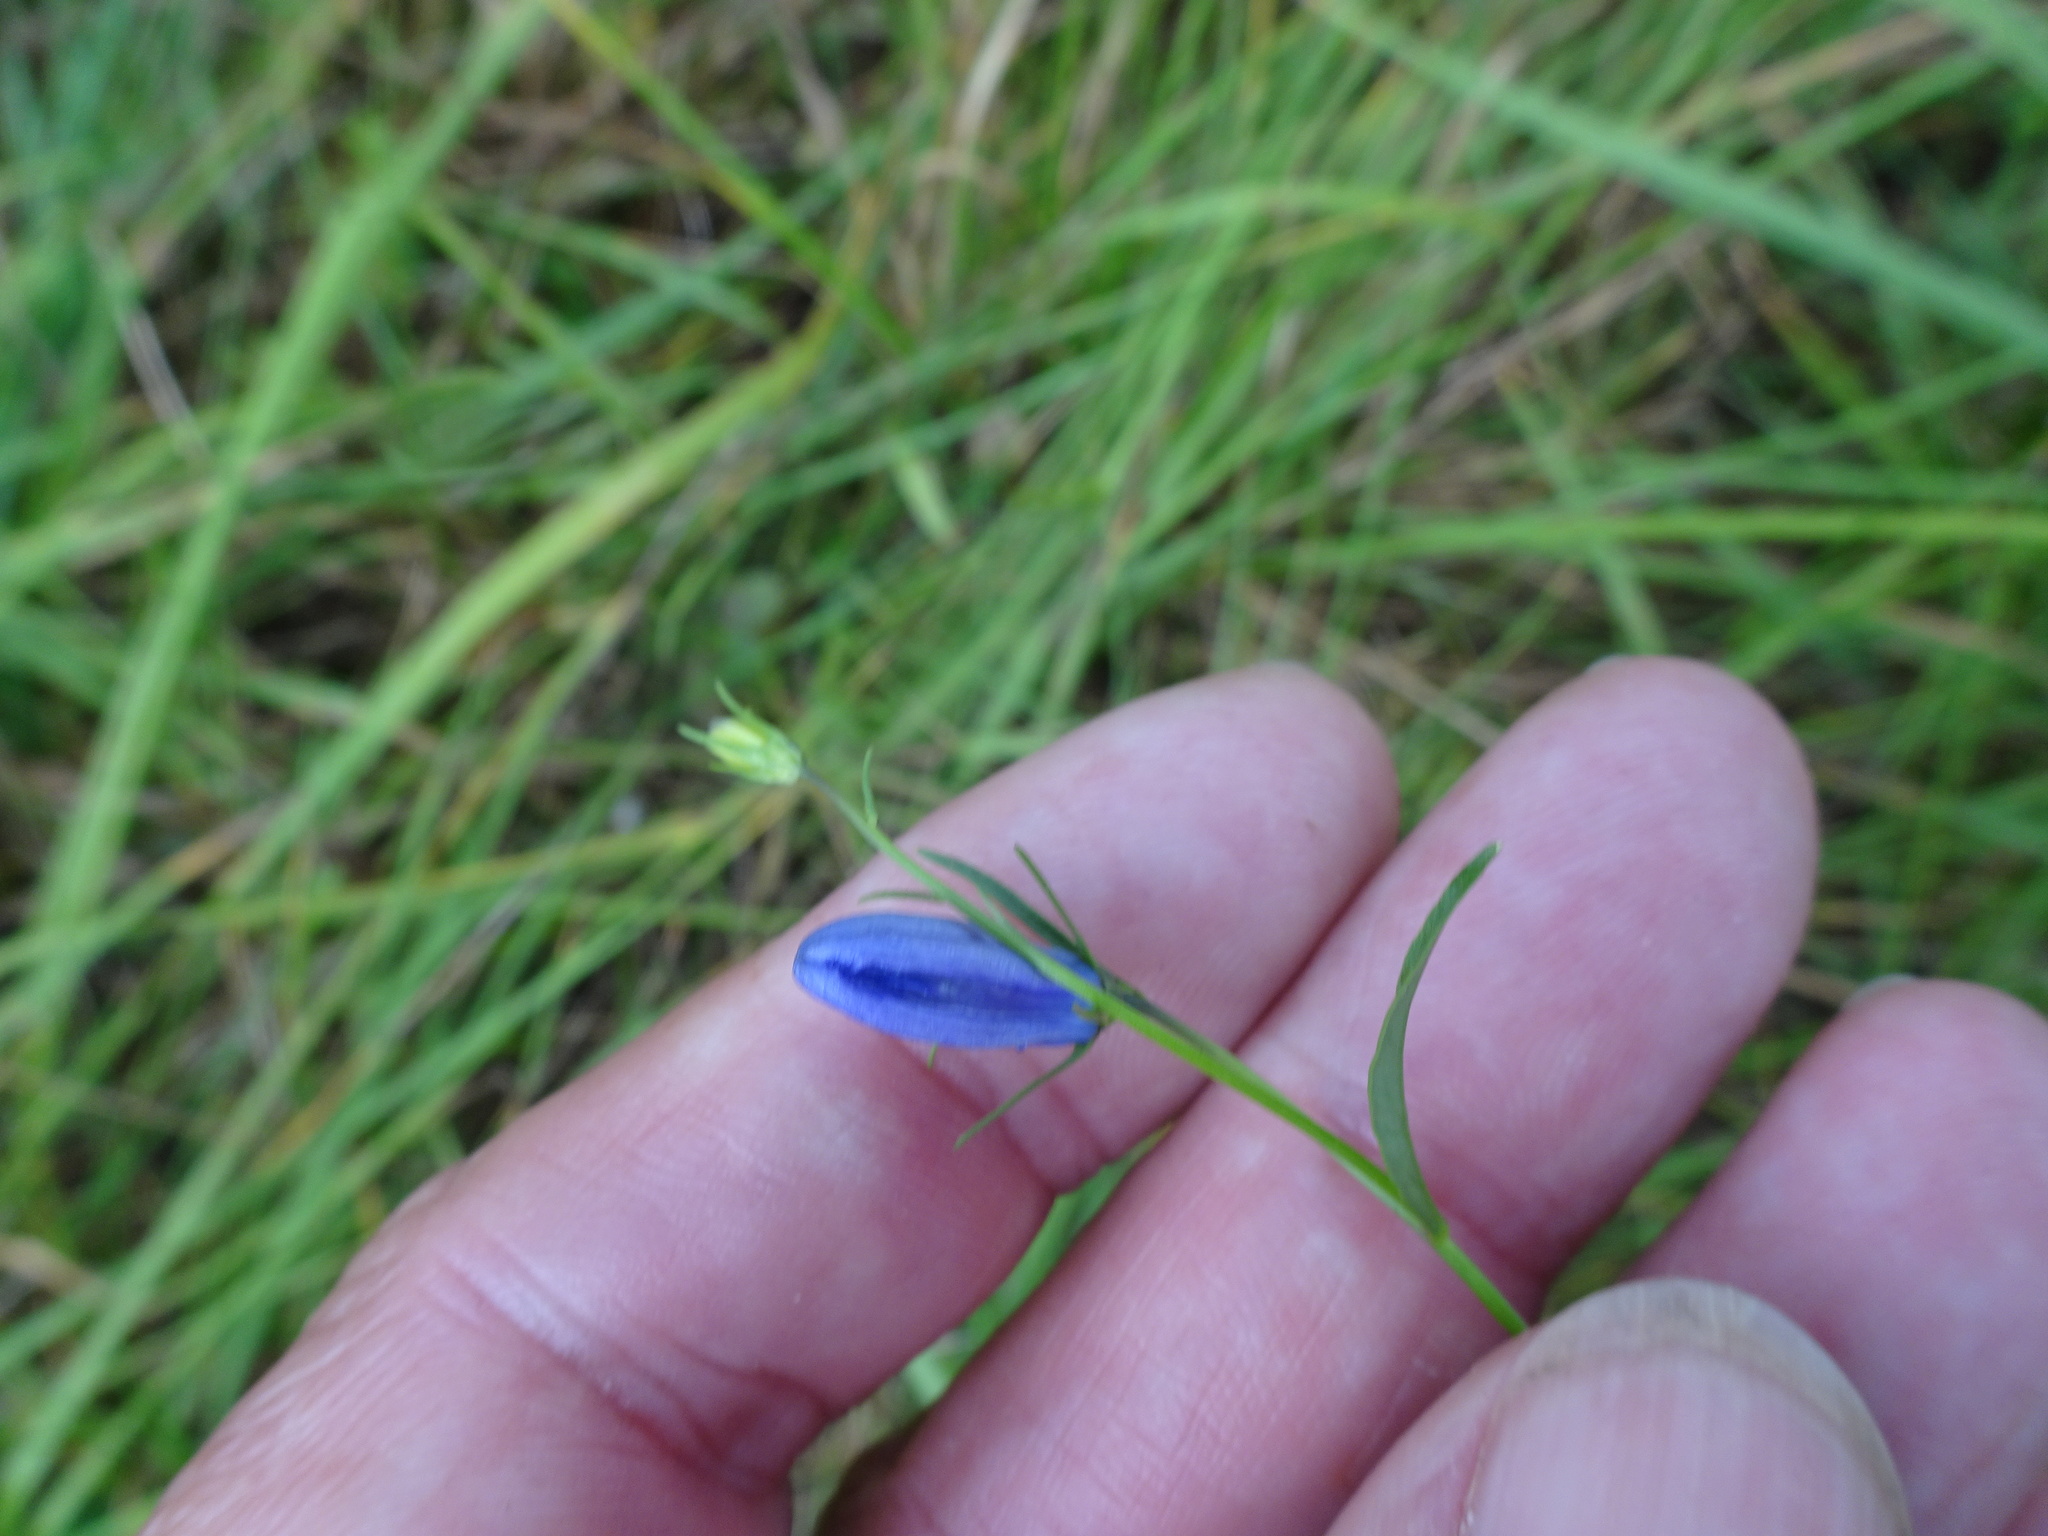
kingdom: Plantae
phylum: Tracheophyta
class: Magnoliopsida
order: Asterales
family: Campanulaceae
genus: Campanula
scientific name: Campanula rotundifolia
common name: Harebell
